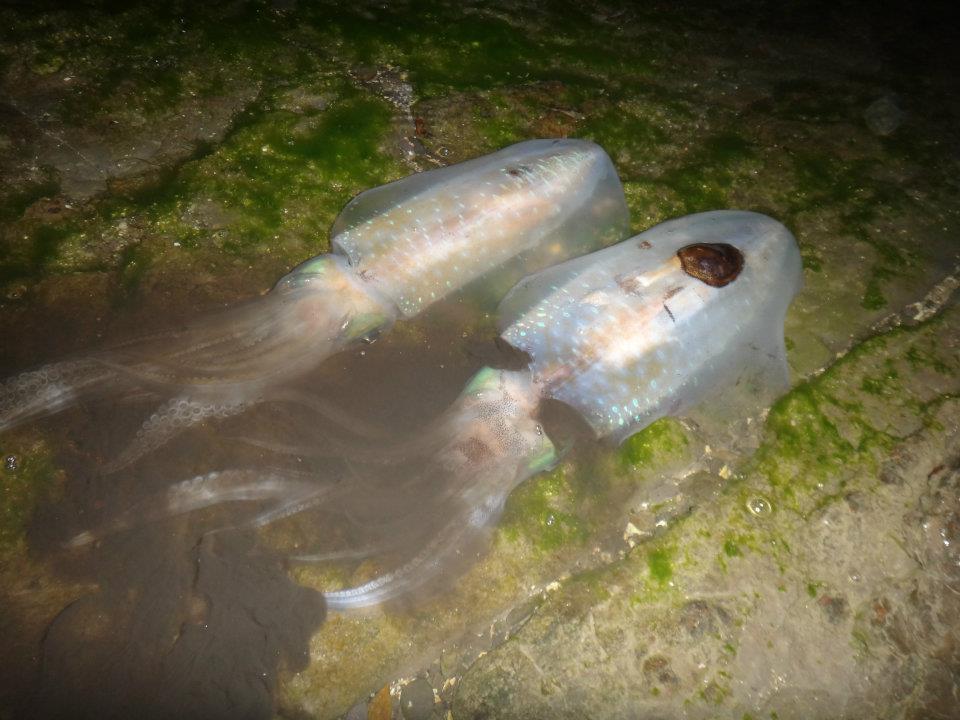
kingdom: Animalia
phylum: Mollusca
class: Cephalopoda
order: Myopsida
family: Loliginidae
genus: Sepioteuthis
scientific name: Sepioteuthis lessoniana
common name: Bigfin reef squid
